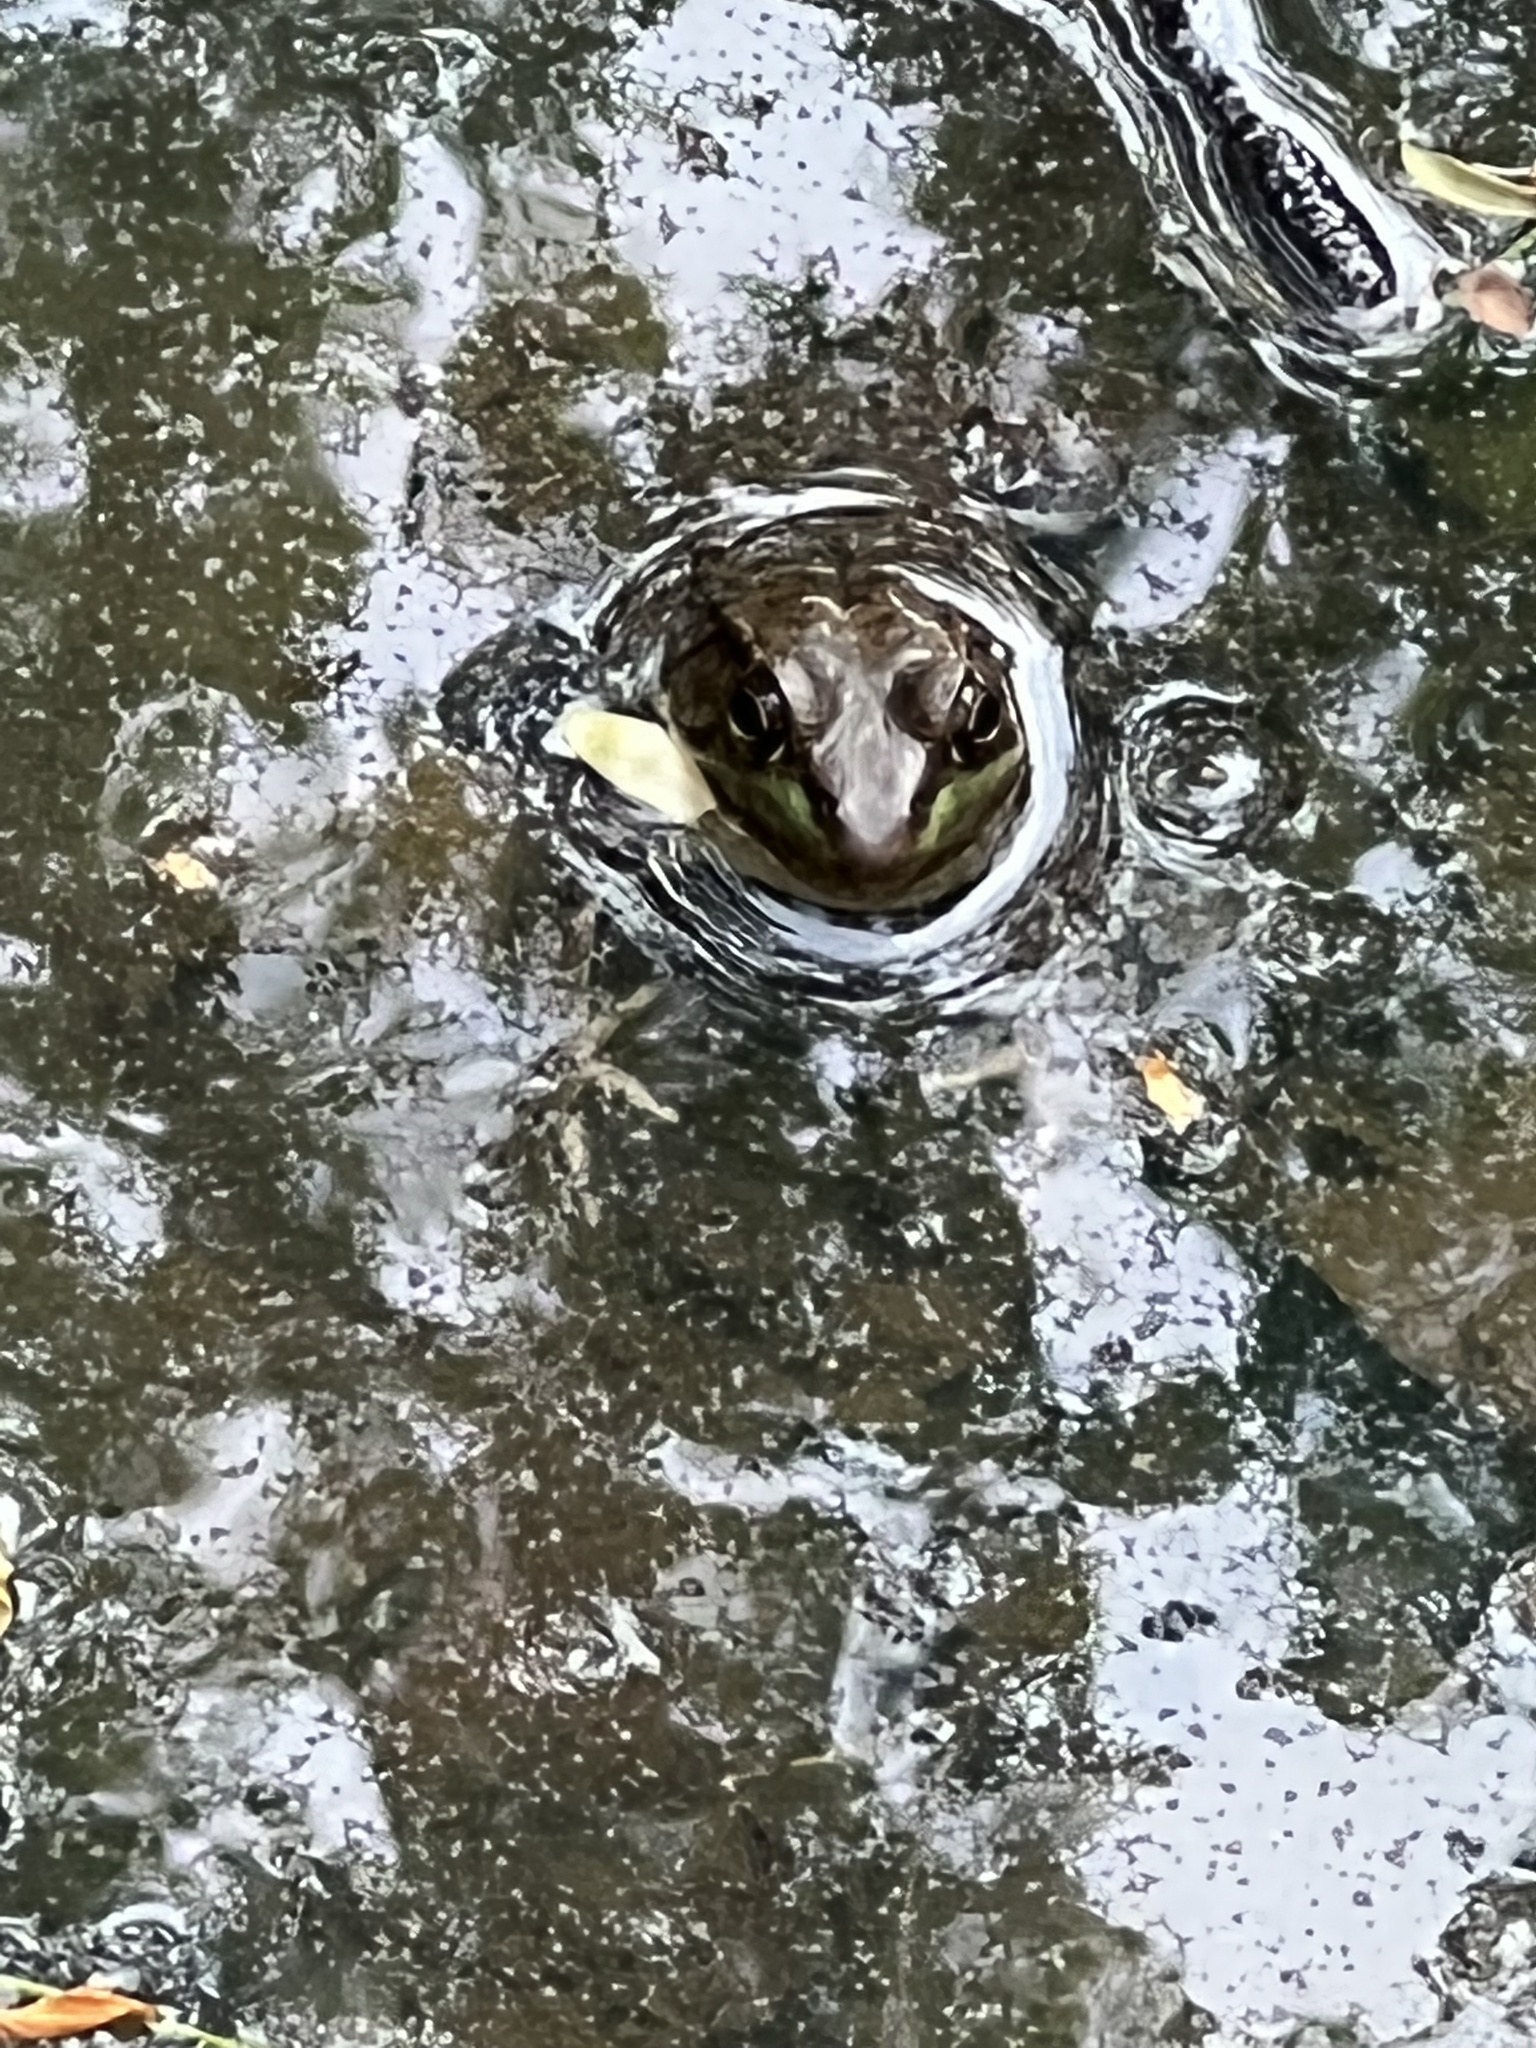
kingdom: Animalia
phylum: Chordata
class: Amphibia
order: Anura
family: Ranidae
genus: Lithobates
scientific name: Lithobates clamitans
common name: Green frog
